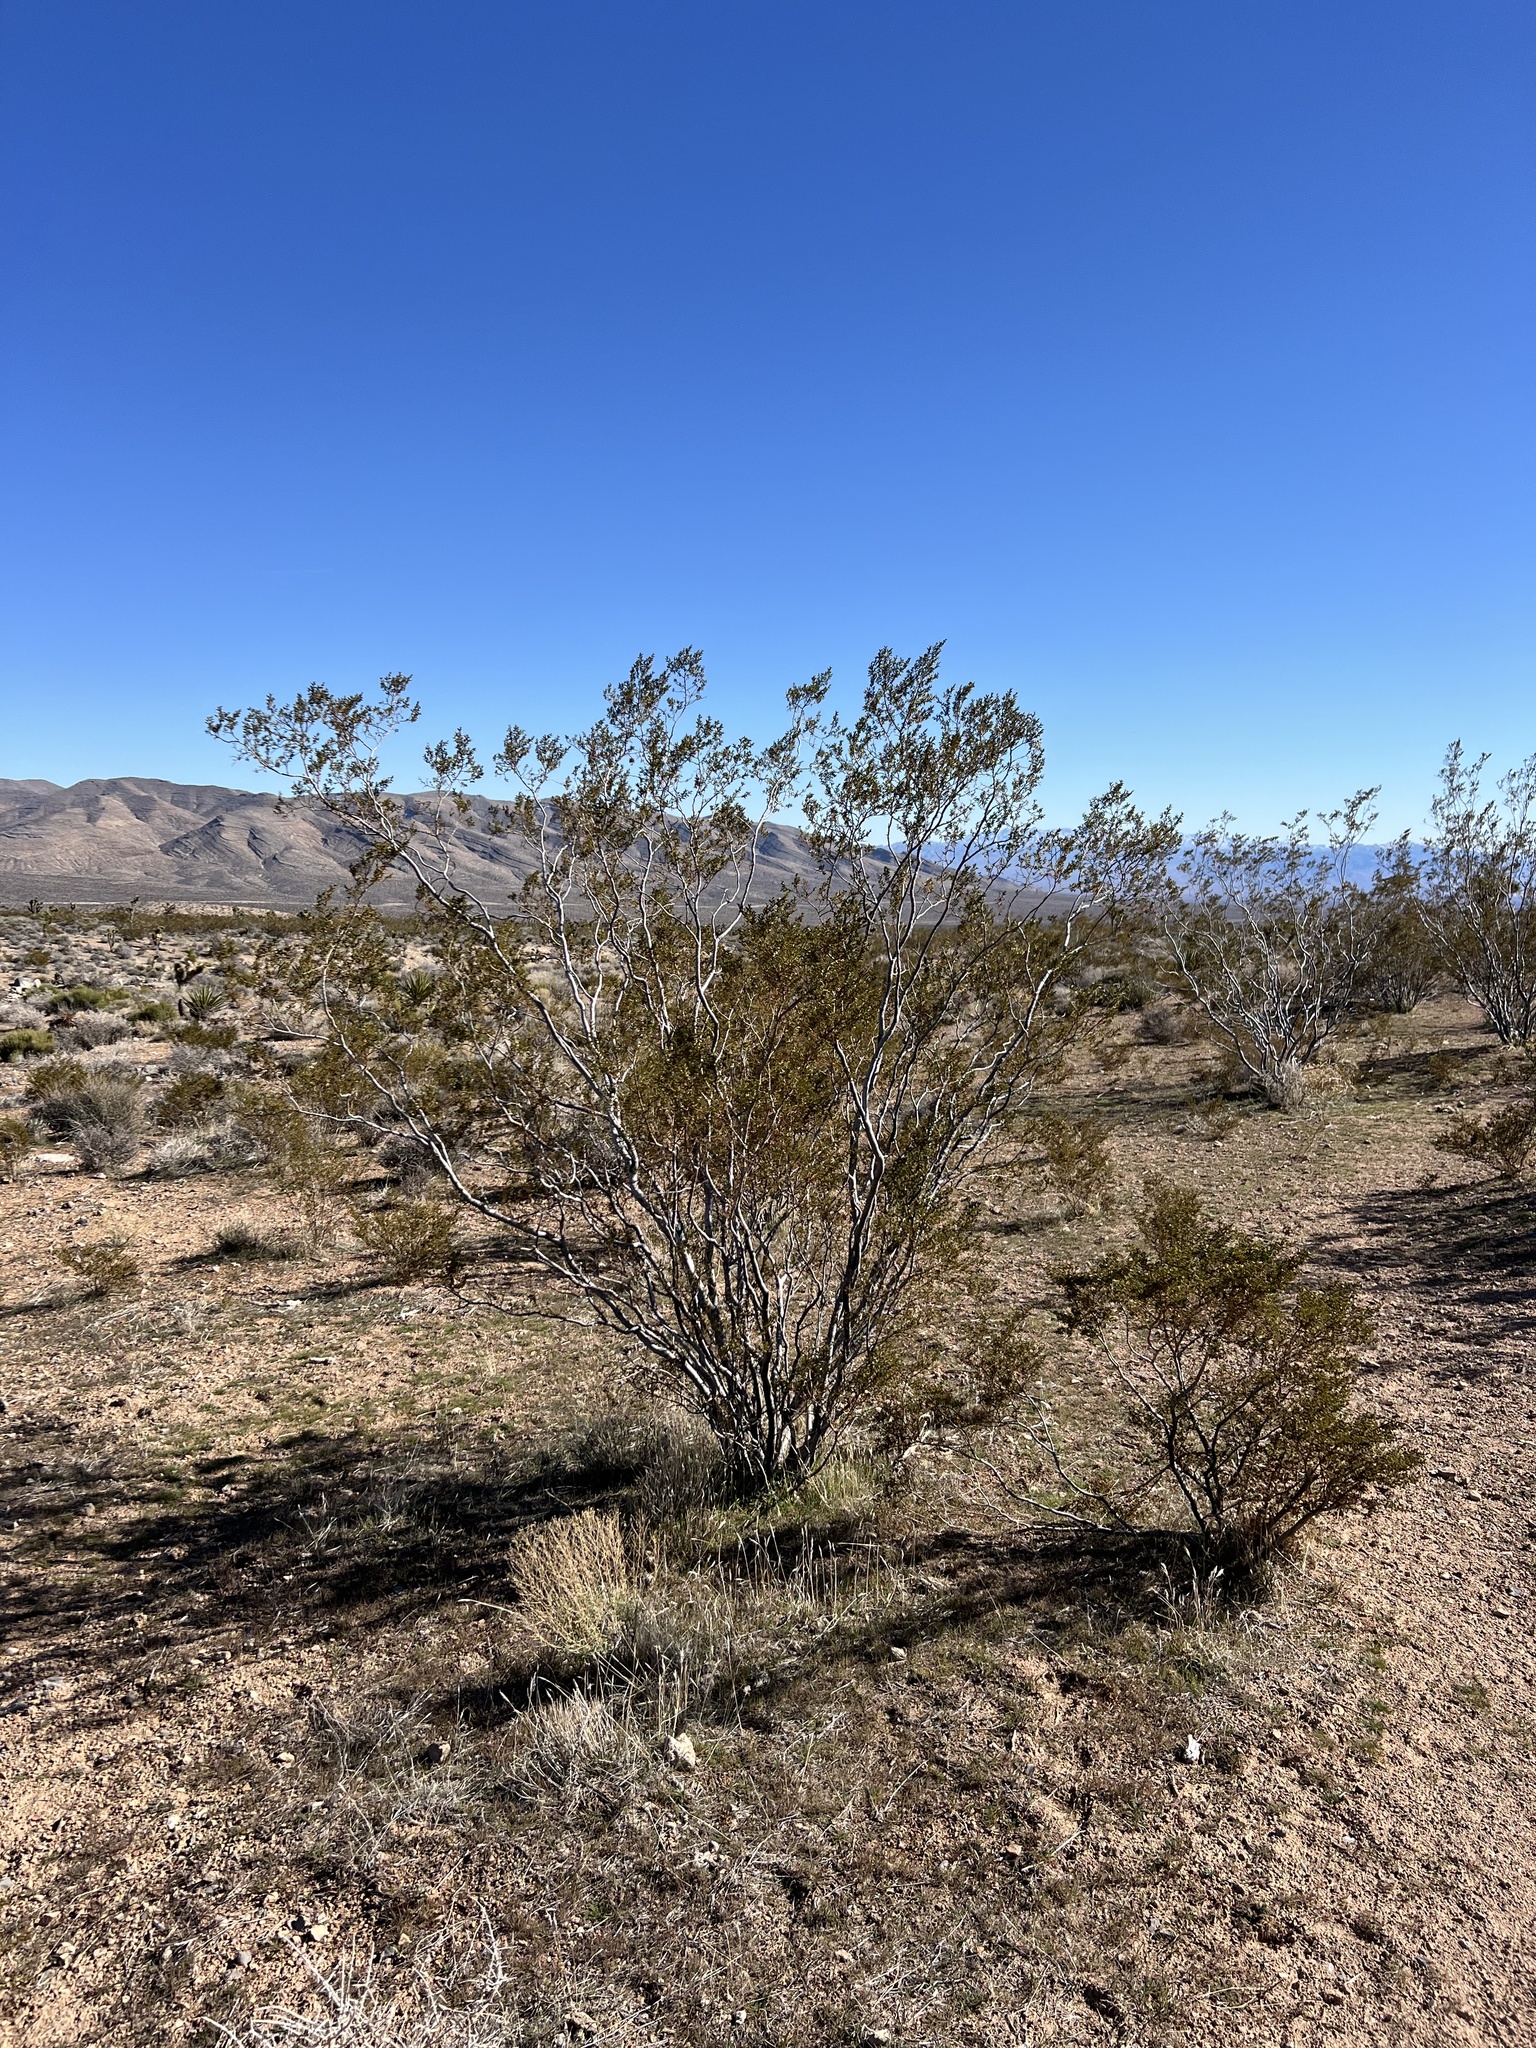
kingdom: Plantae
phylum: Tracheophyta
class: Magnoliopsida
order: Zygophyllales
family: Zygophyllaceae
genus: Larrea
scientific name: Larrea tridentata
